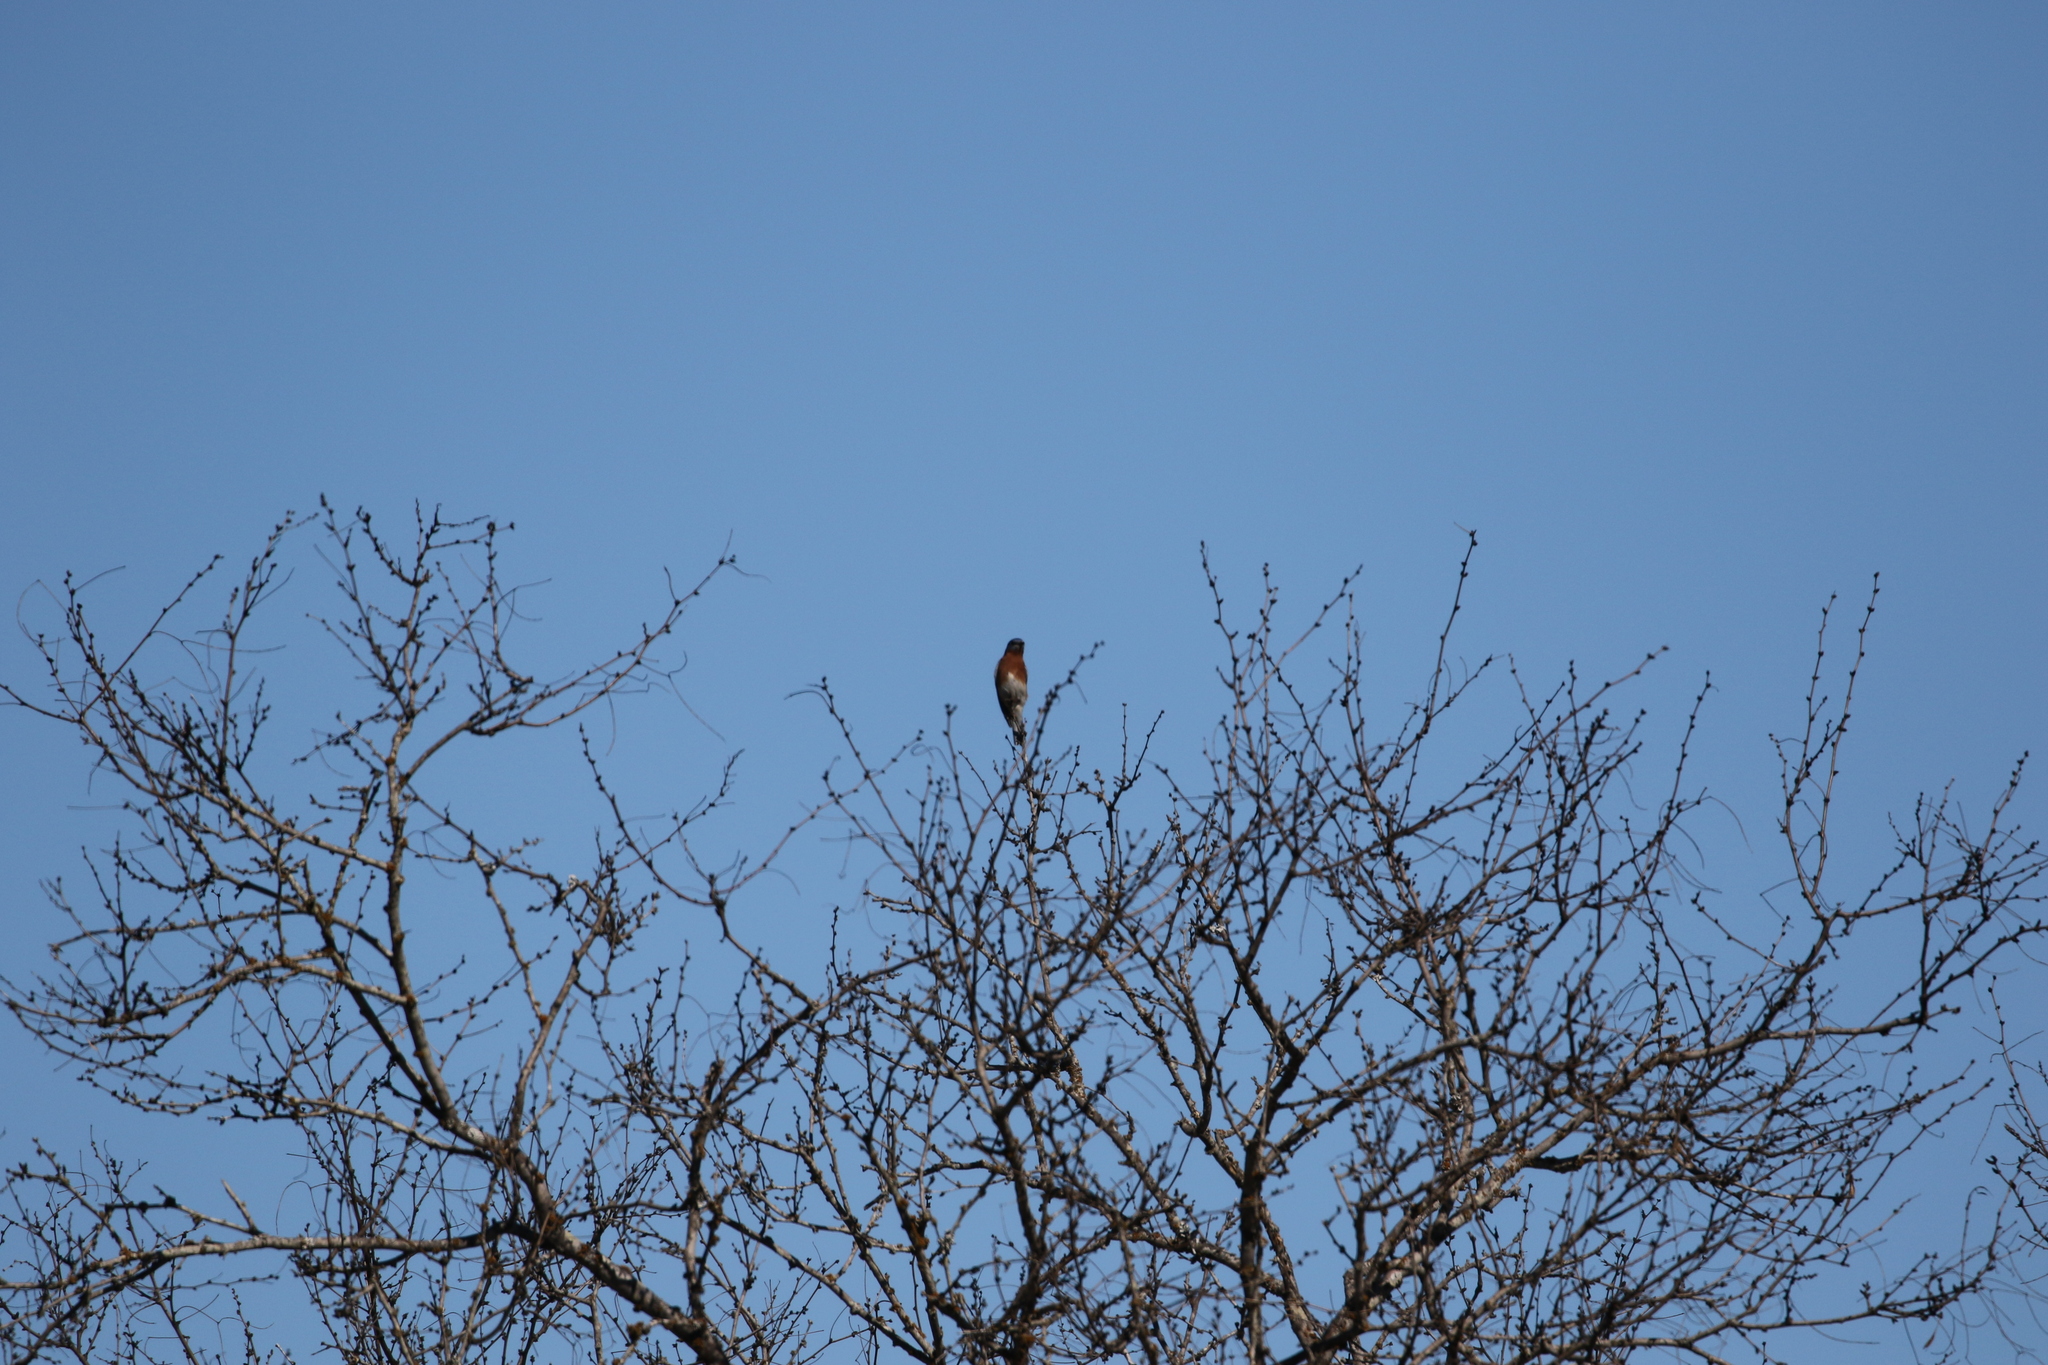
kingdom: Animalia
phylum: Chordata
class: Aves
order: Passeriformes
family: Turdidae
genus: Sialia
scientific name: Sialia sialis
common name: Eastern bluebird
